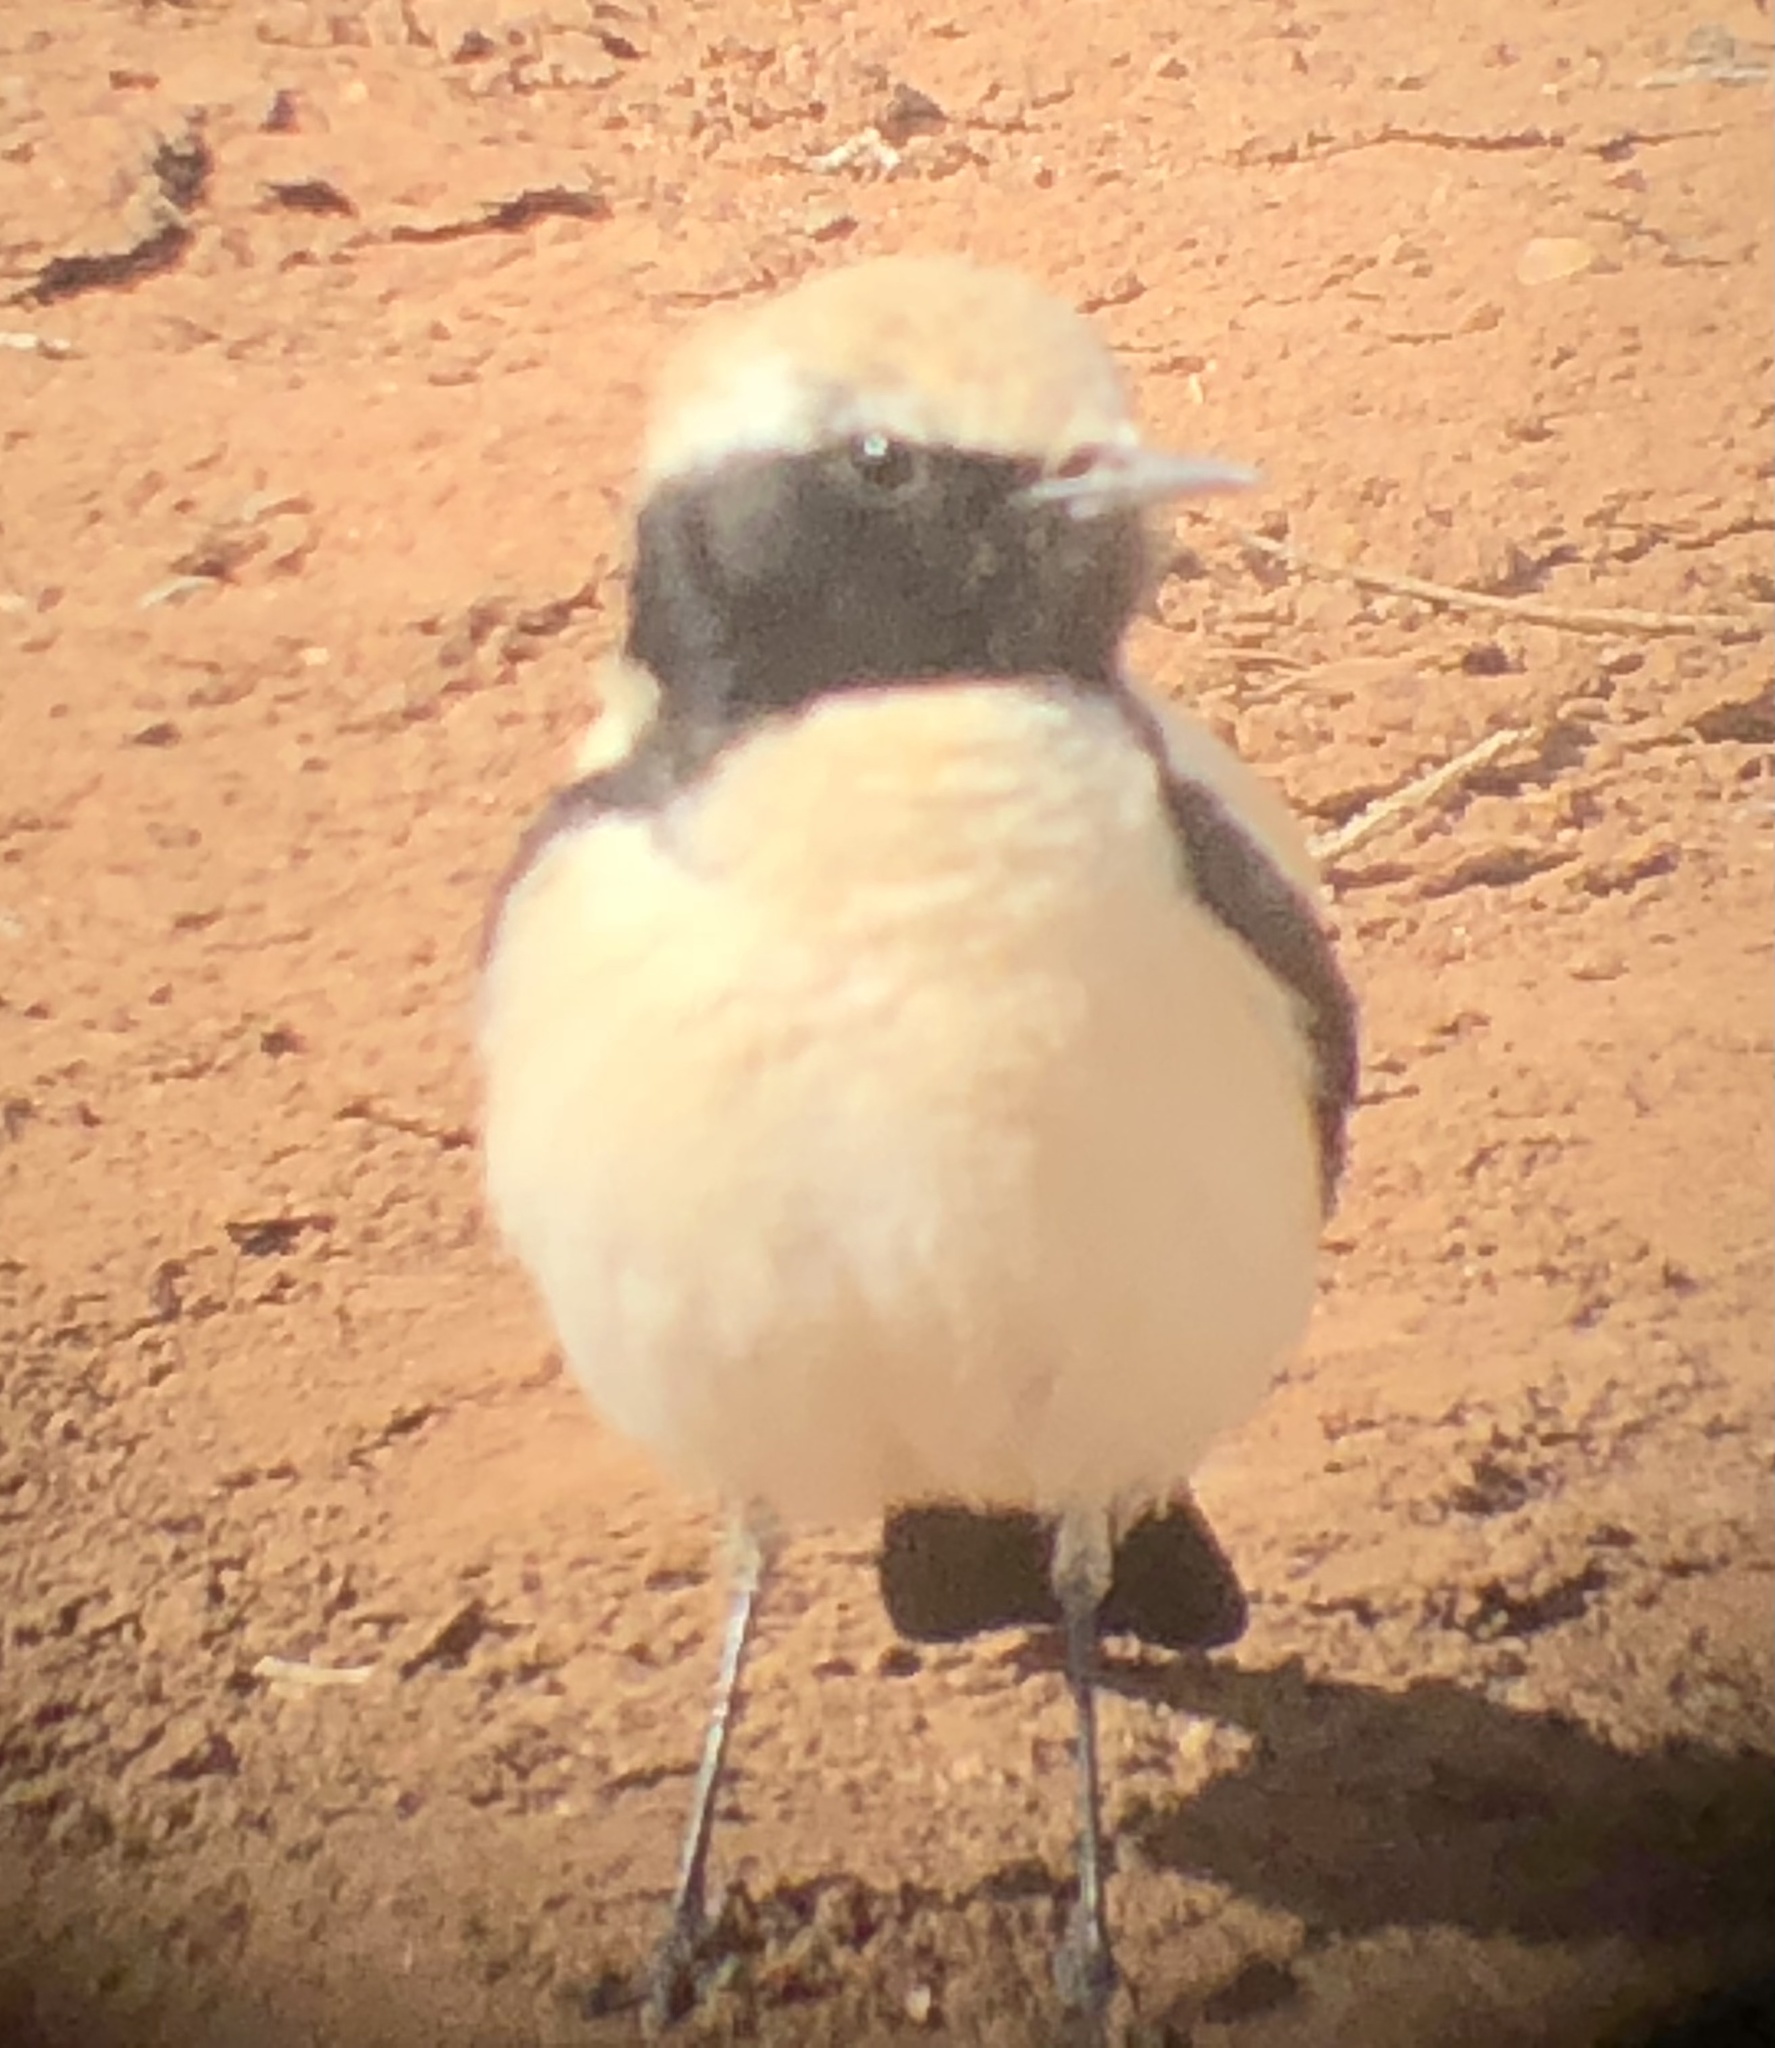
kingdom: Animalia
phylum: Chordata
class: Aves
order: Passeriformes
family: Muscicapidae
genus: Oenanthe
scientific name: Oenanthe deserti
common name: Desert wheatear
